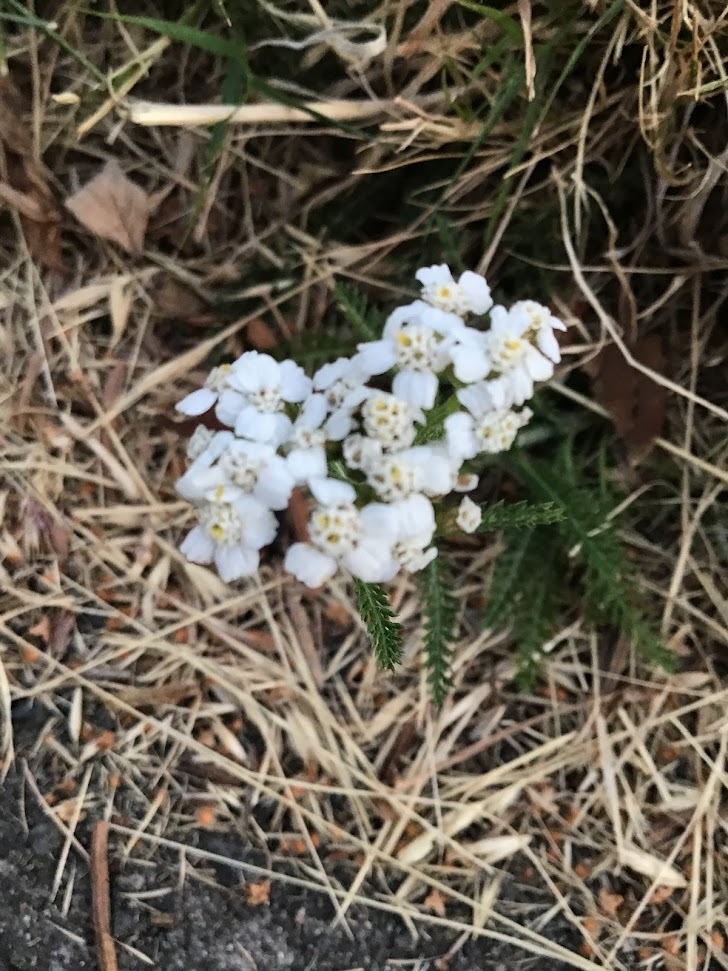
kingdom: Plantae
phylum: Tracheophyta
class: Magnoliopsida
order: Asterales
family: Asteraceae
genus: Achillea
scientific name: Achillea millefolium
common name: Yarrow
